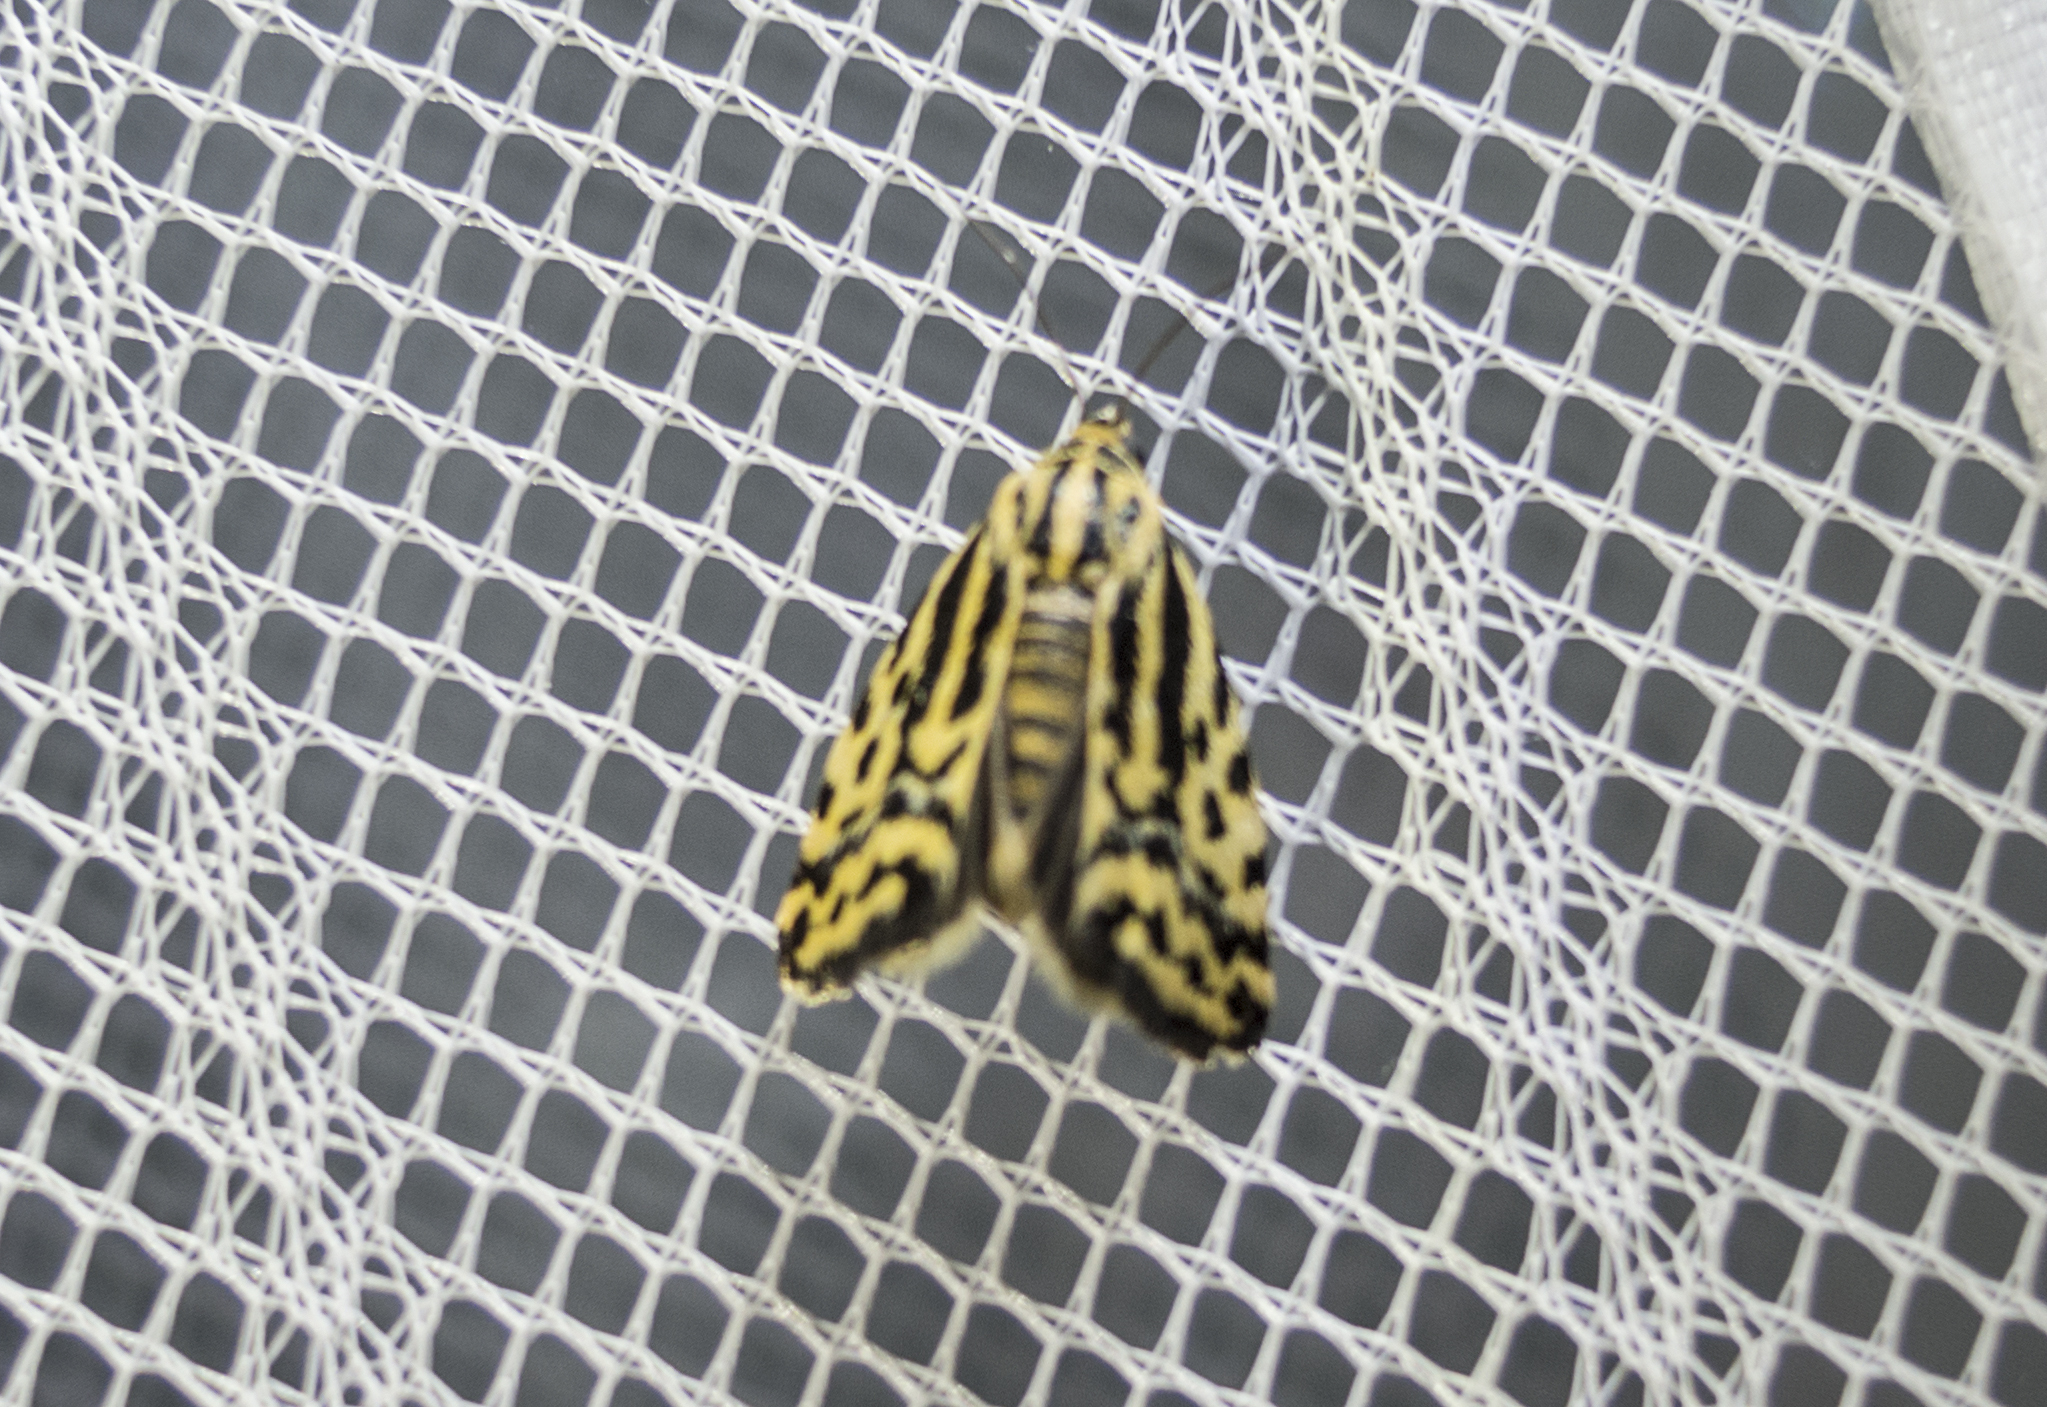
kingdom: Animalia
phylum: Arthropoda
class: Insecta
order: Lepidoptera
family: Noctuidae
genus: Acontia
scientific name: Acontia trabealis
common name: Spotted sulphur
